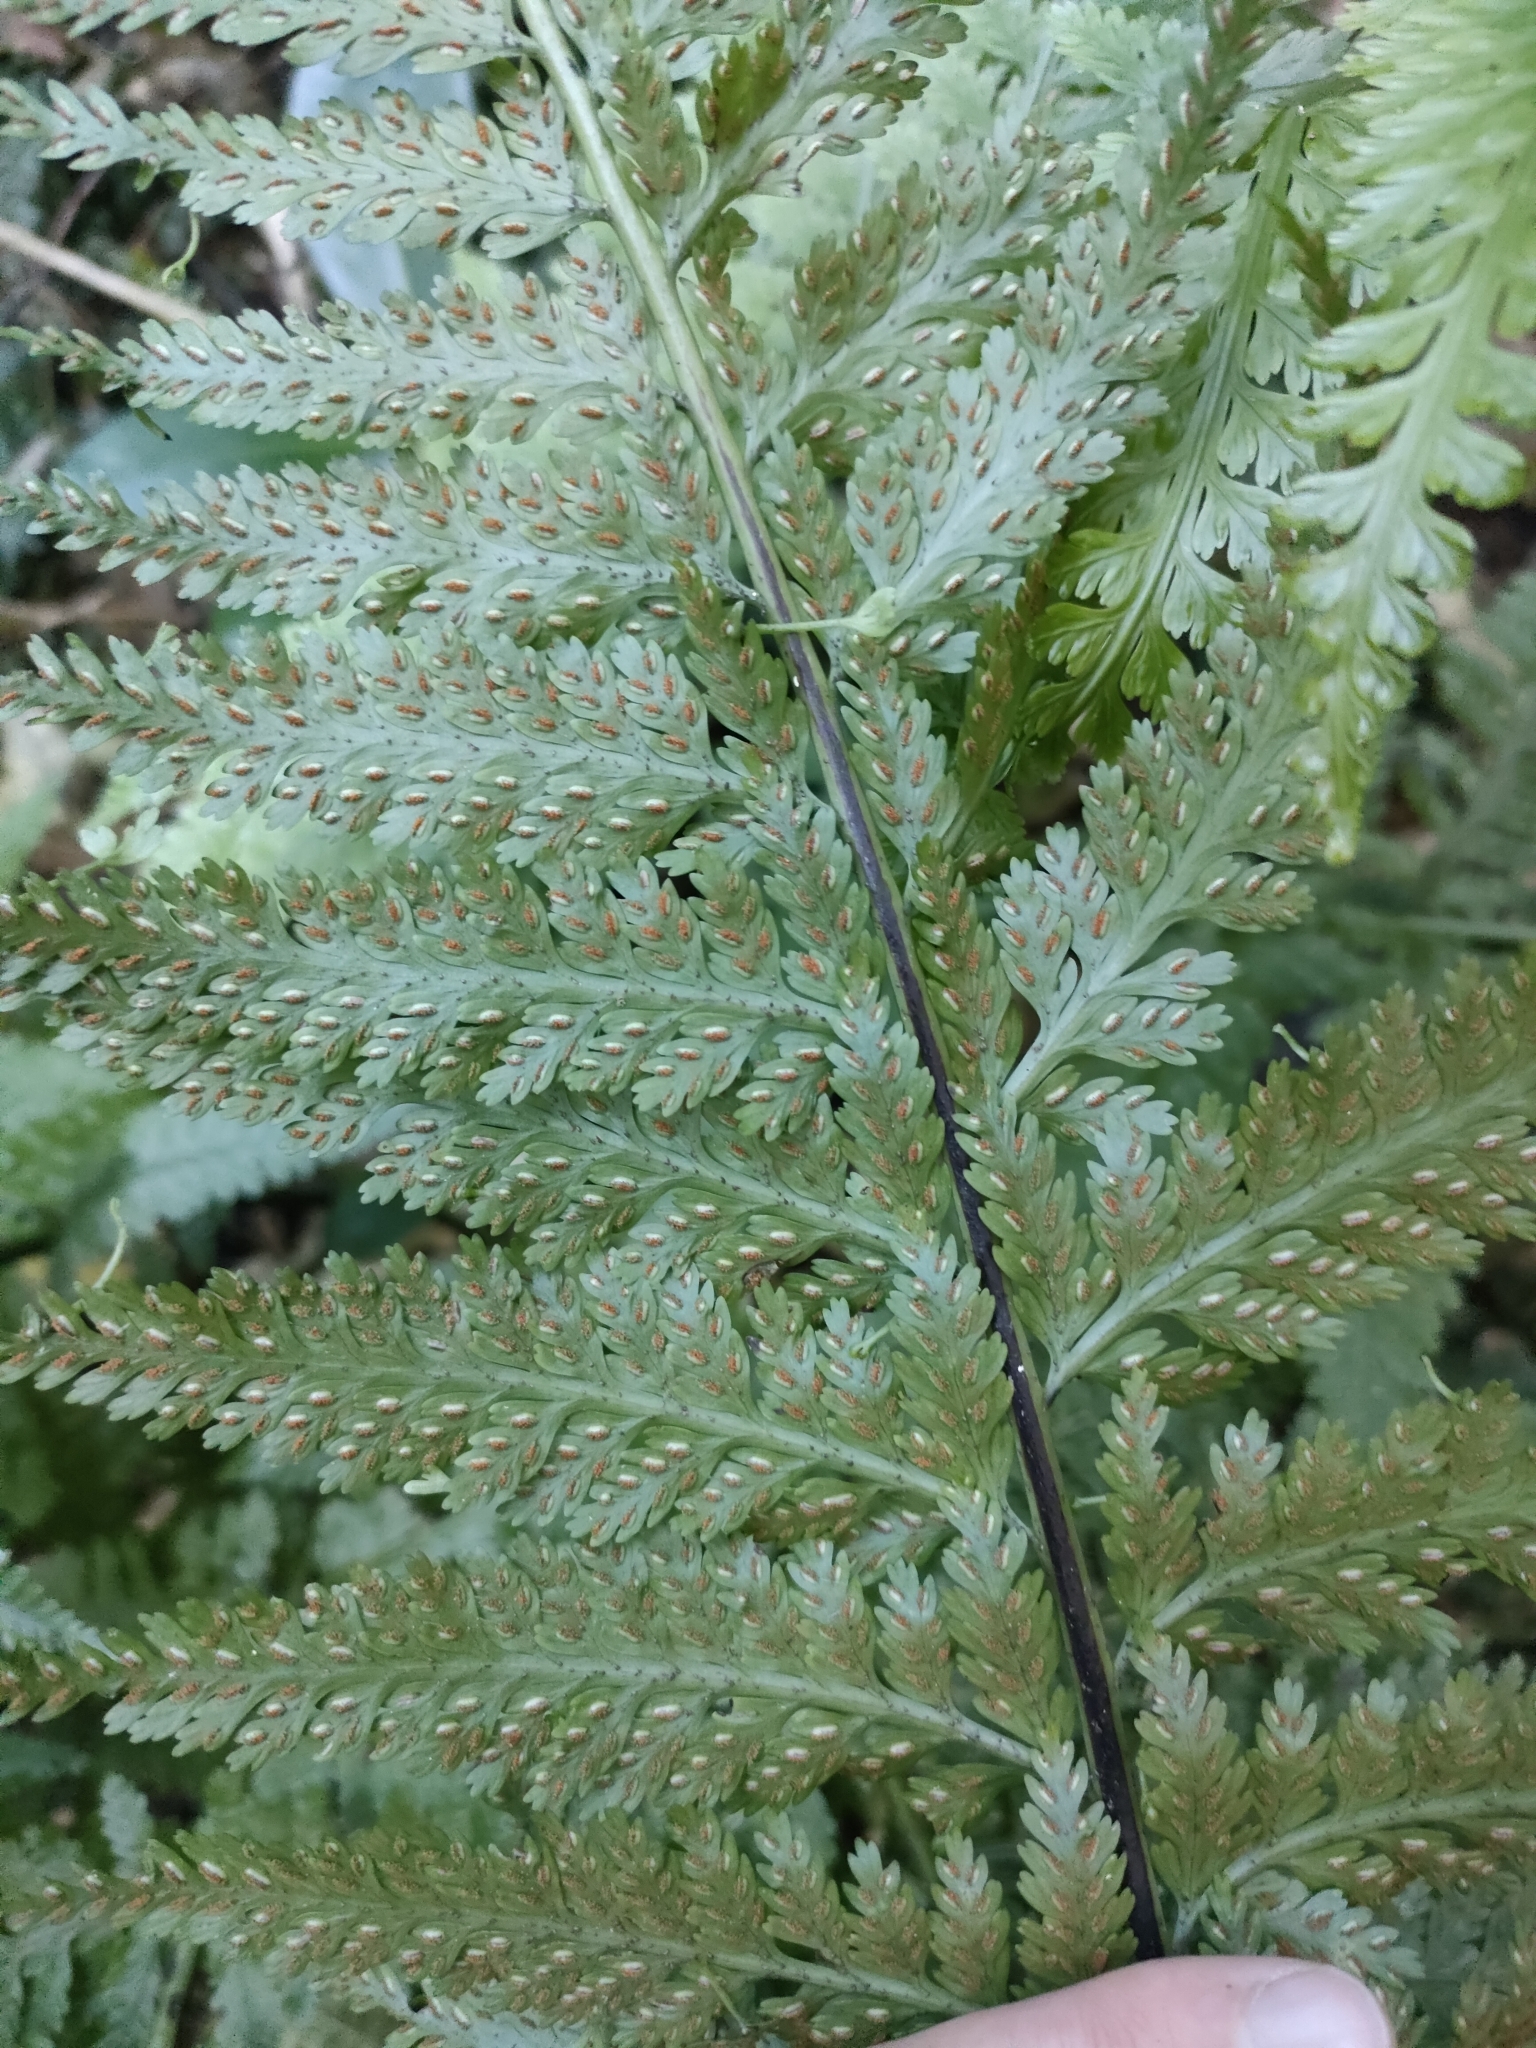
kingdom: Plantae
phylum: Tracheophyta
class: Polypodiopsida
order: Polypodiales
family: Aspleniaceae
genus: Asplenium
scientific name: Asplenium bulbiferum
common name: Mother fern
